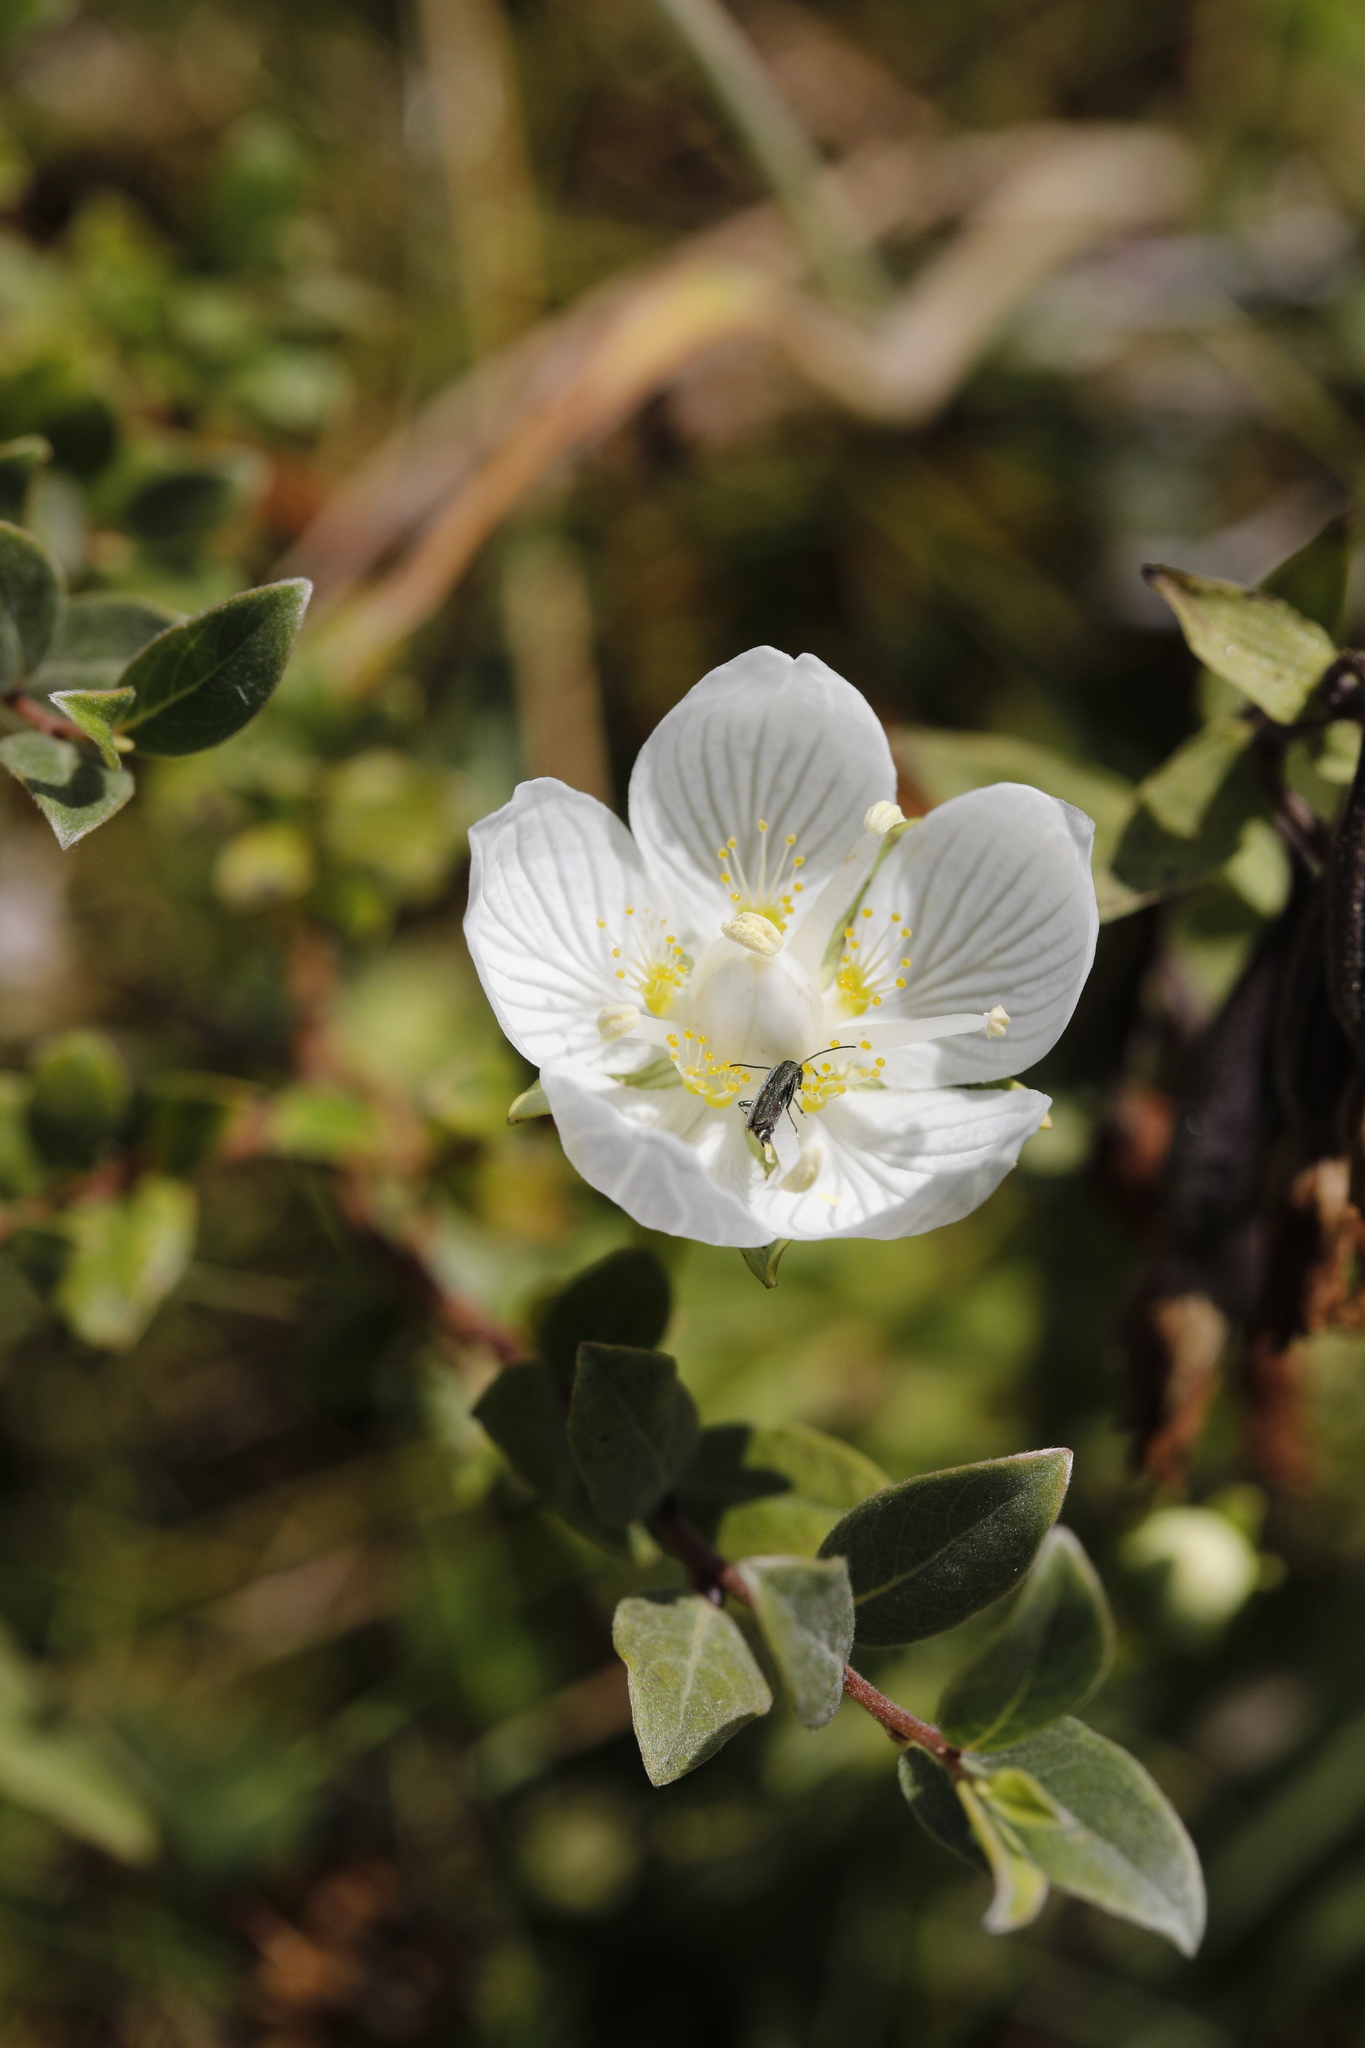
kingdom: Plantae
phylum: Tracheophyta
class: Magnoliopsida
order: Celastrales
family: Parnassiaceae
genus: Parnassia
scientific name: Parnassia palustris
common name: Grass-of-parnassus
